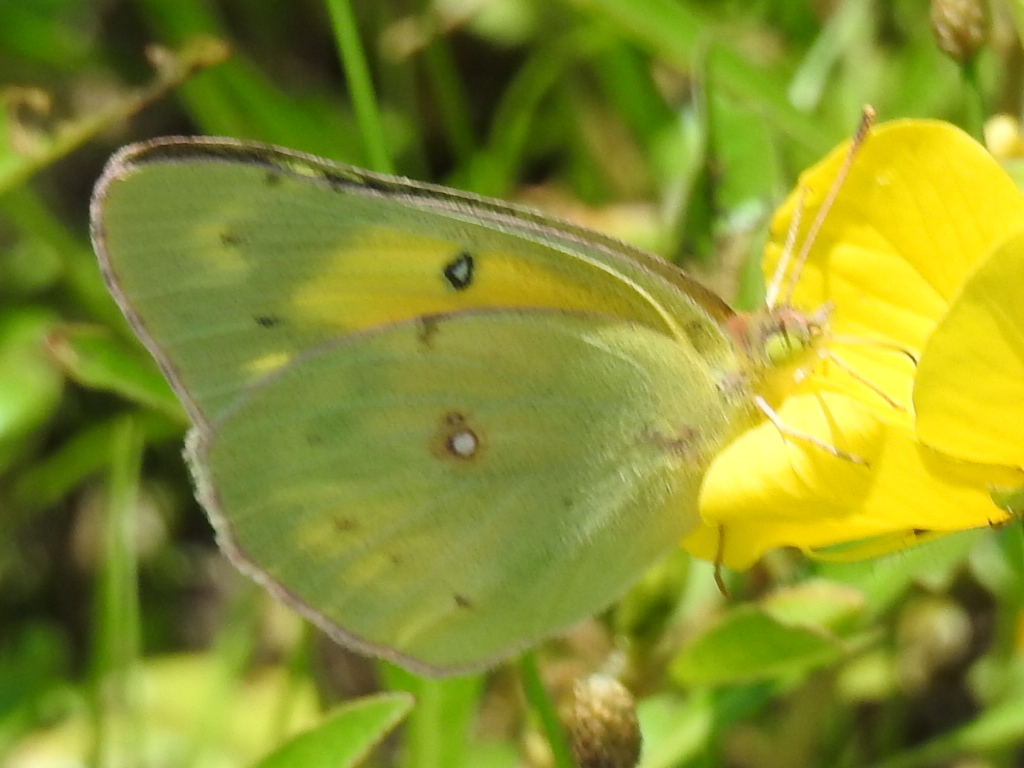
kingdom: Animalia
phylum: Arthropoda
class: Insecta
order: Lepidoptera
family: Pieridae
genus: Colias
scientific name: Colias eurytheme
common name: Alfalfa butterfly
